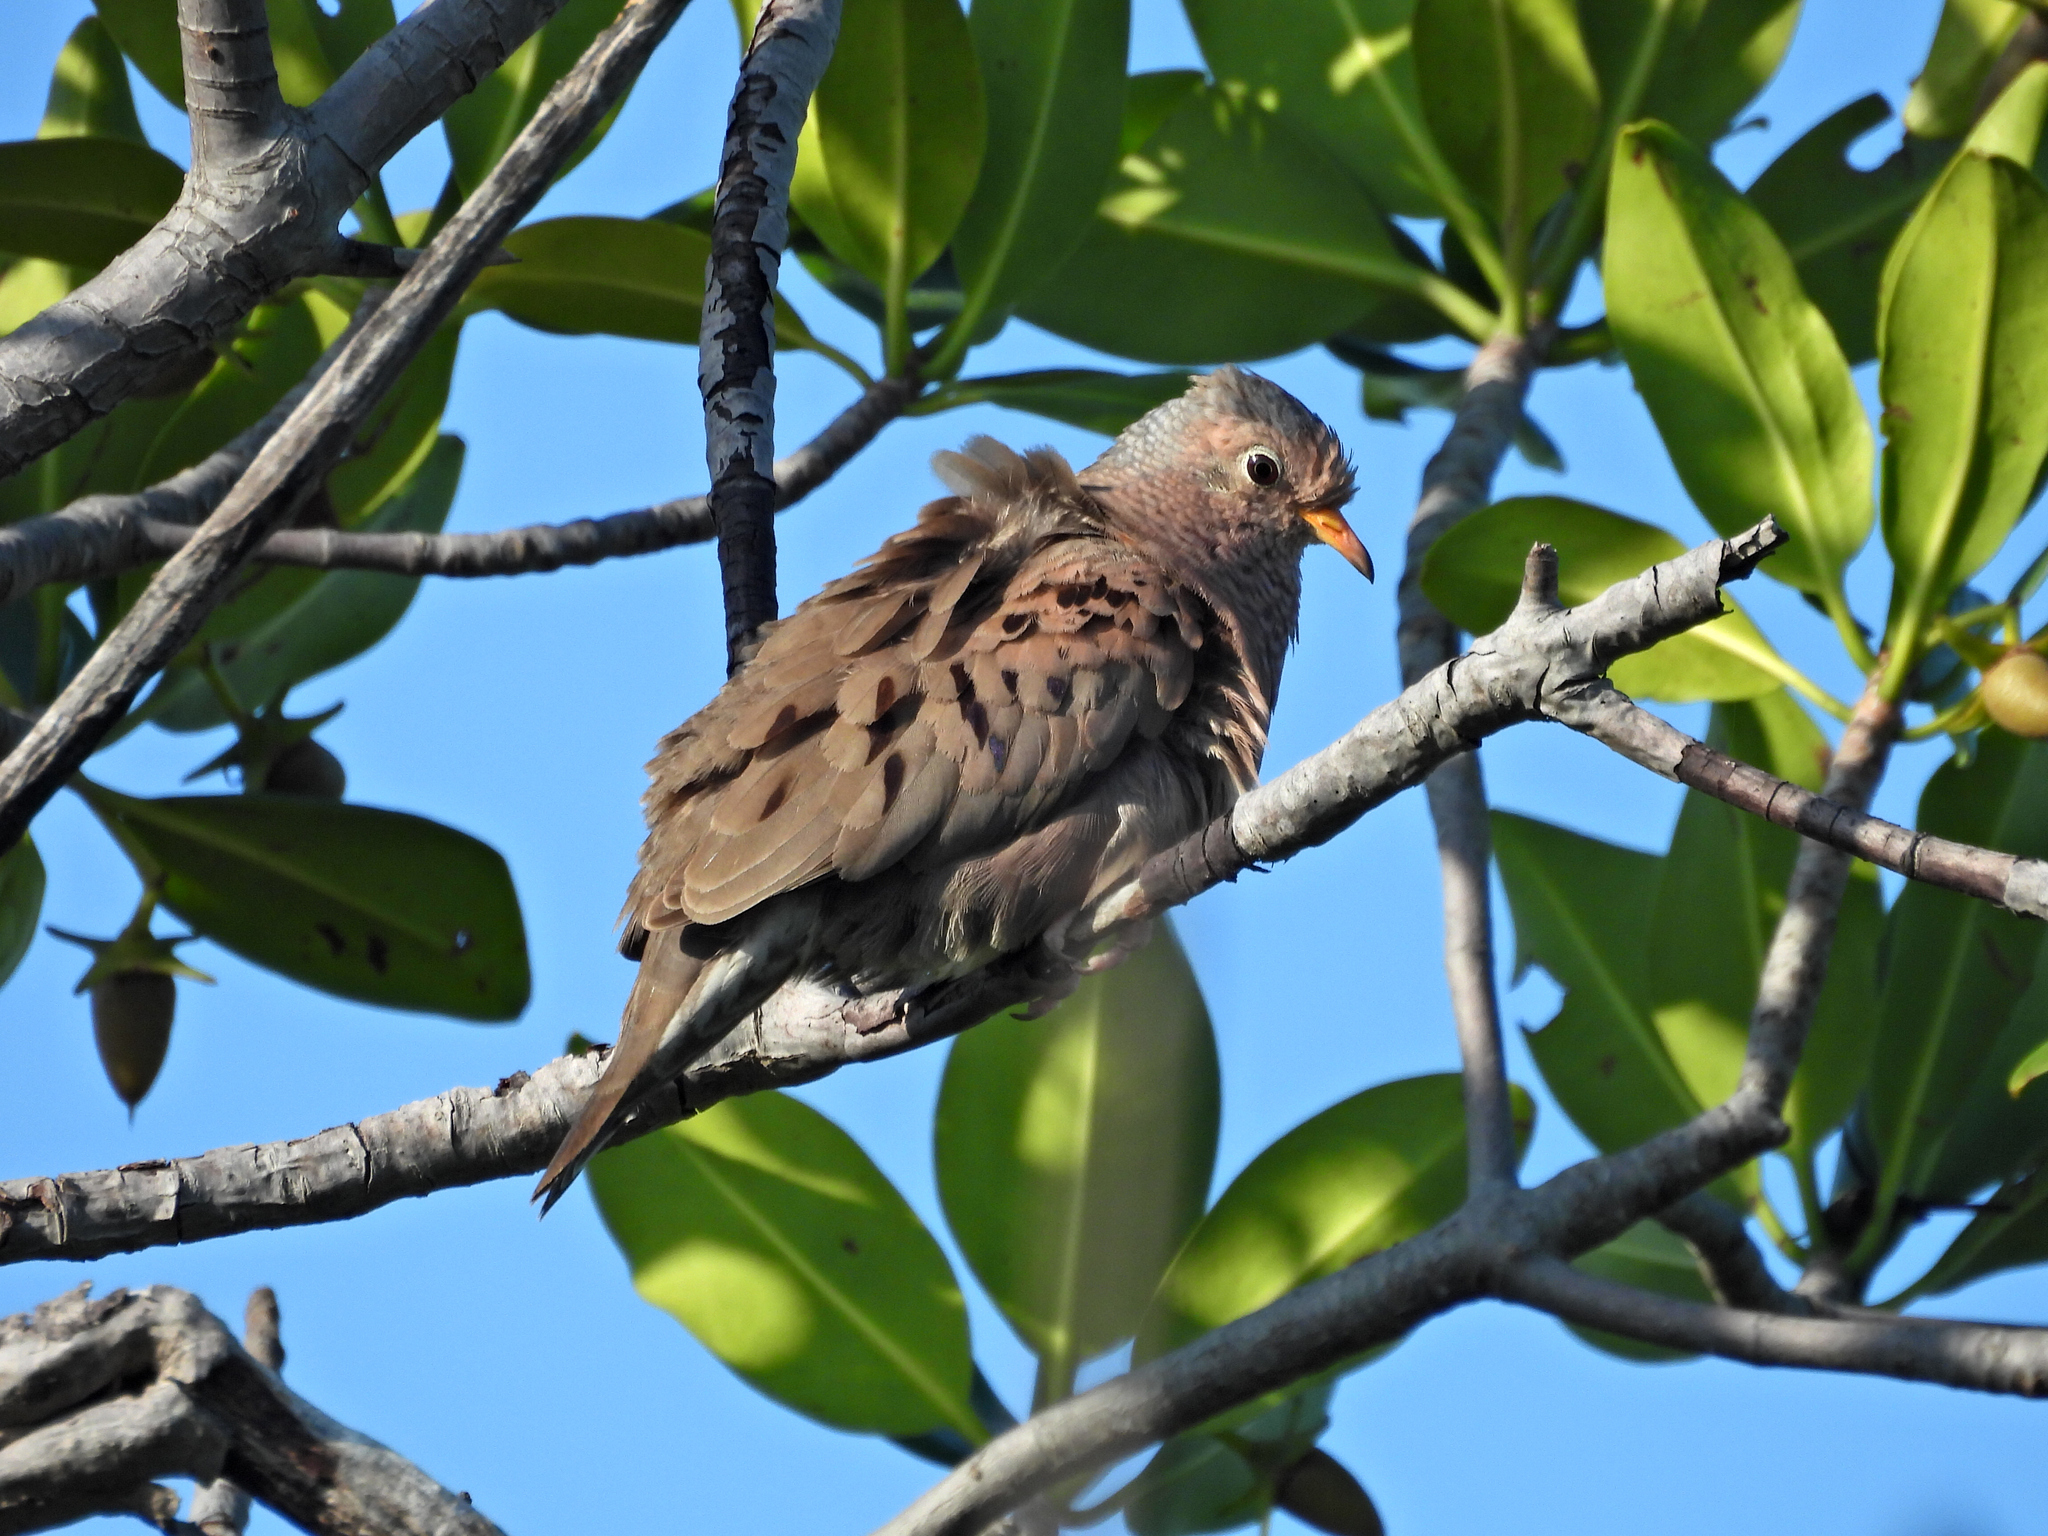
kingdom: Animalia
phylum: Chordata
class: Aves
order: Columbiformes
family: Columbidae
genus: Columbina
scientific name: Columbina passerina
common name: Common ground-dove
